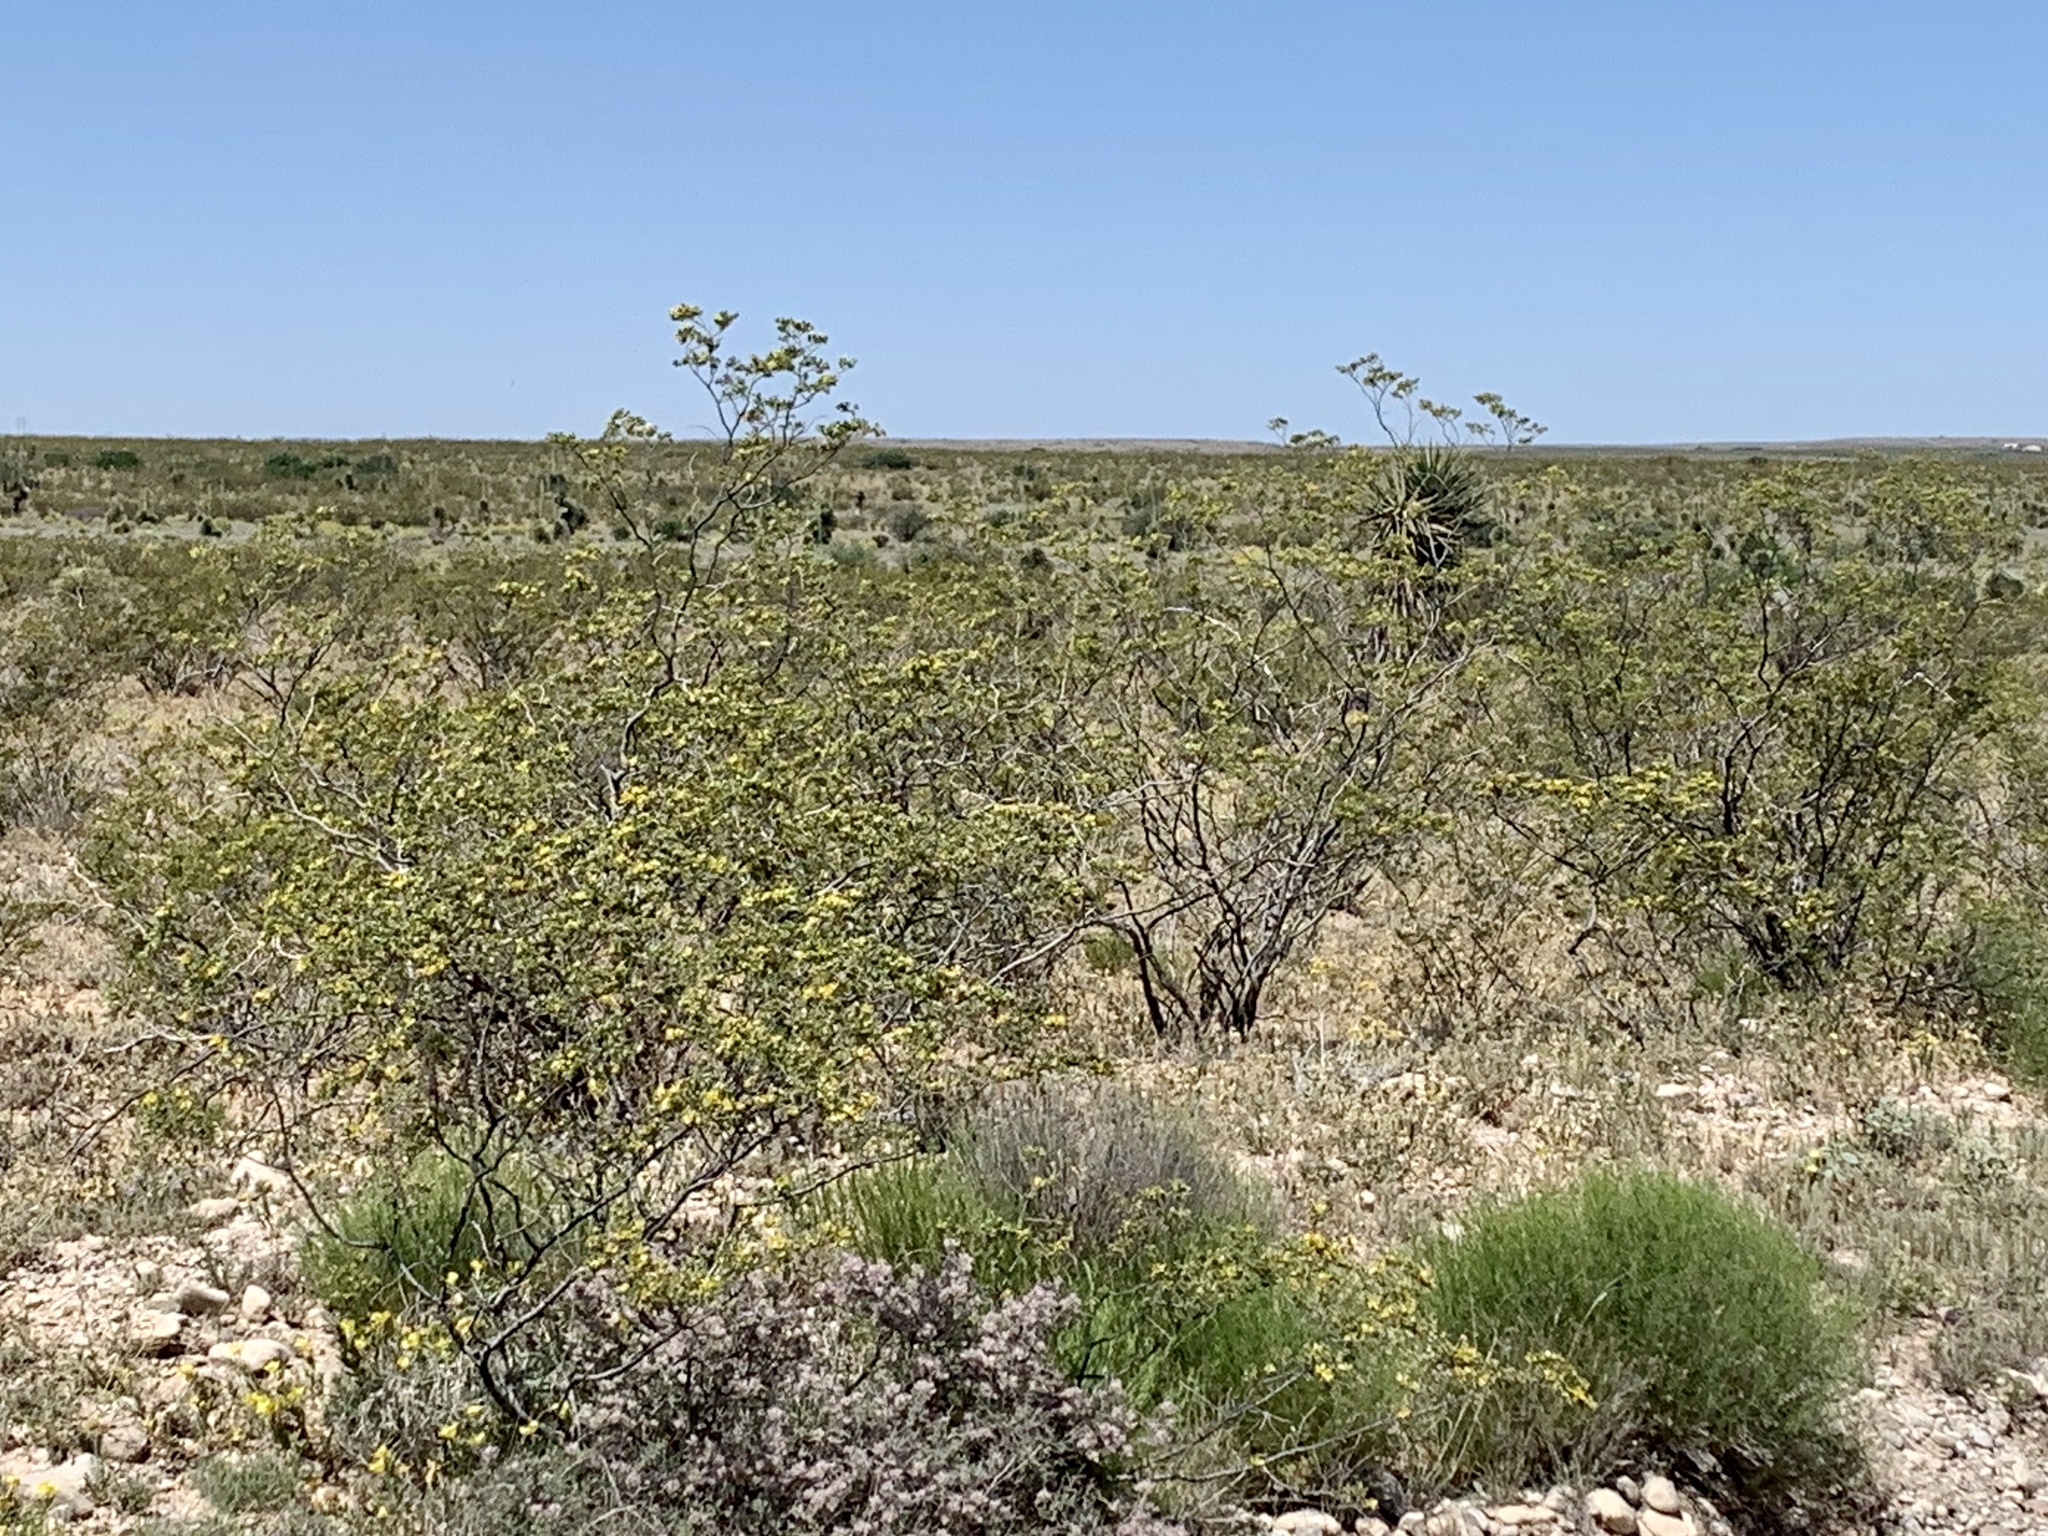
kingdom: Plantae
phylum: Tracheophyta
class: Magnoliopsida
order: Zygophyllales
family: Zygophyllaceae
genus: Larrea
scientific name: Larrea tridentata
